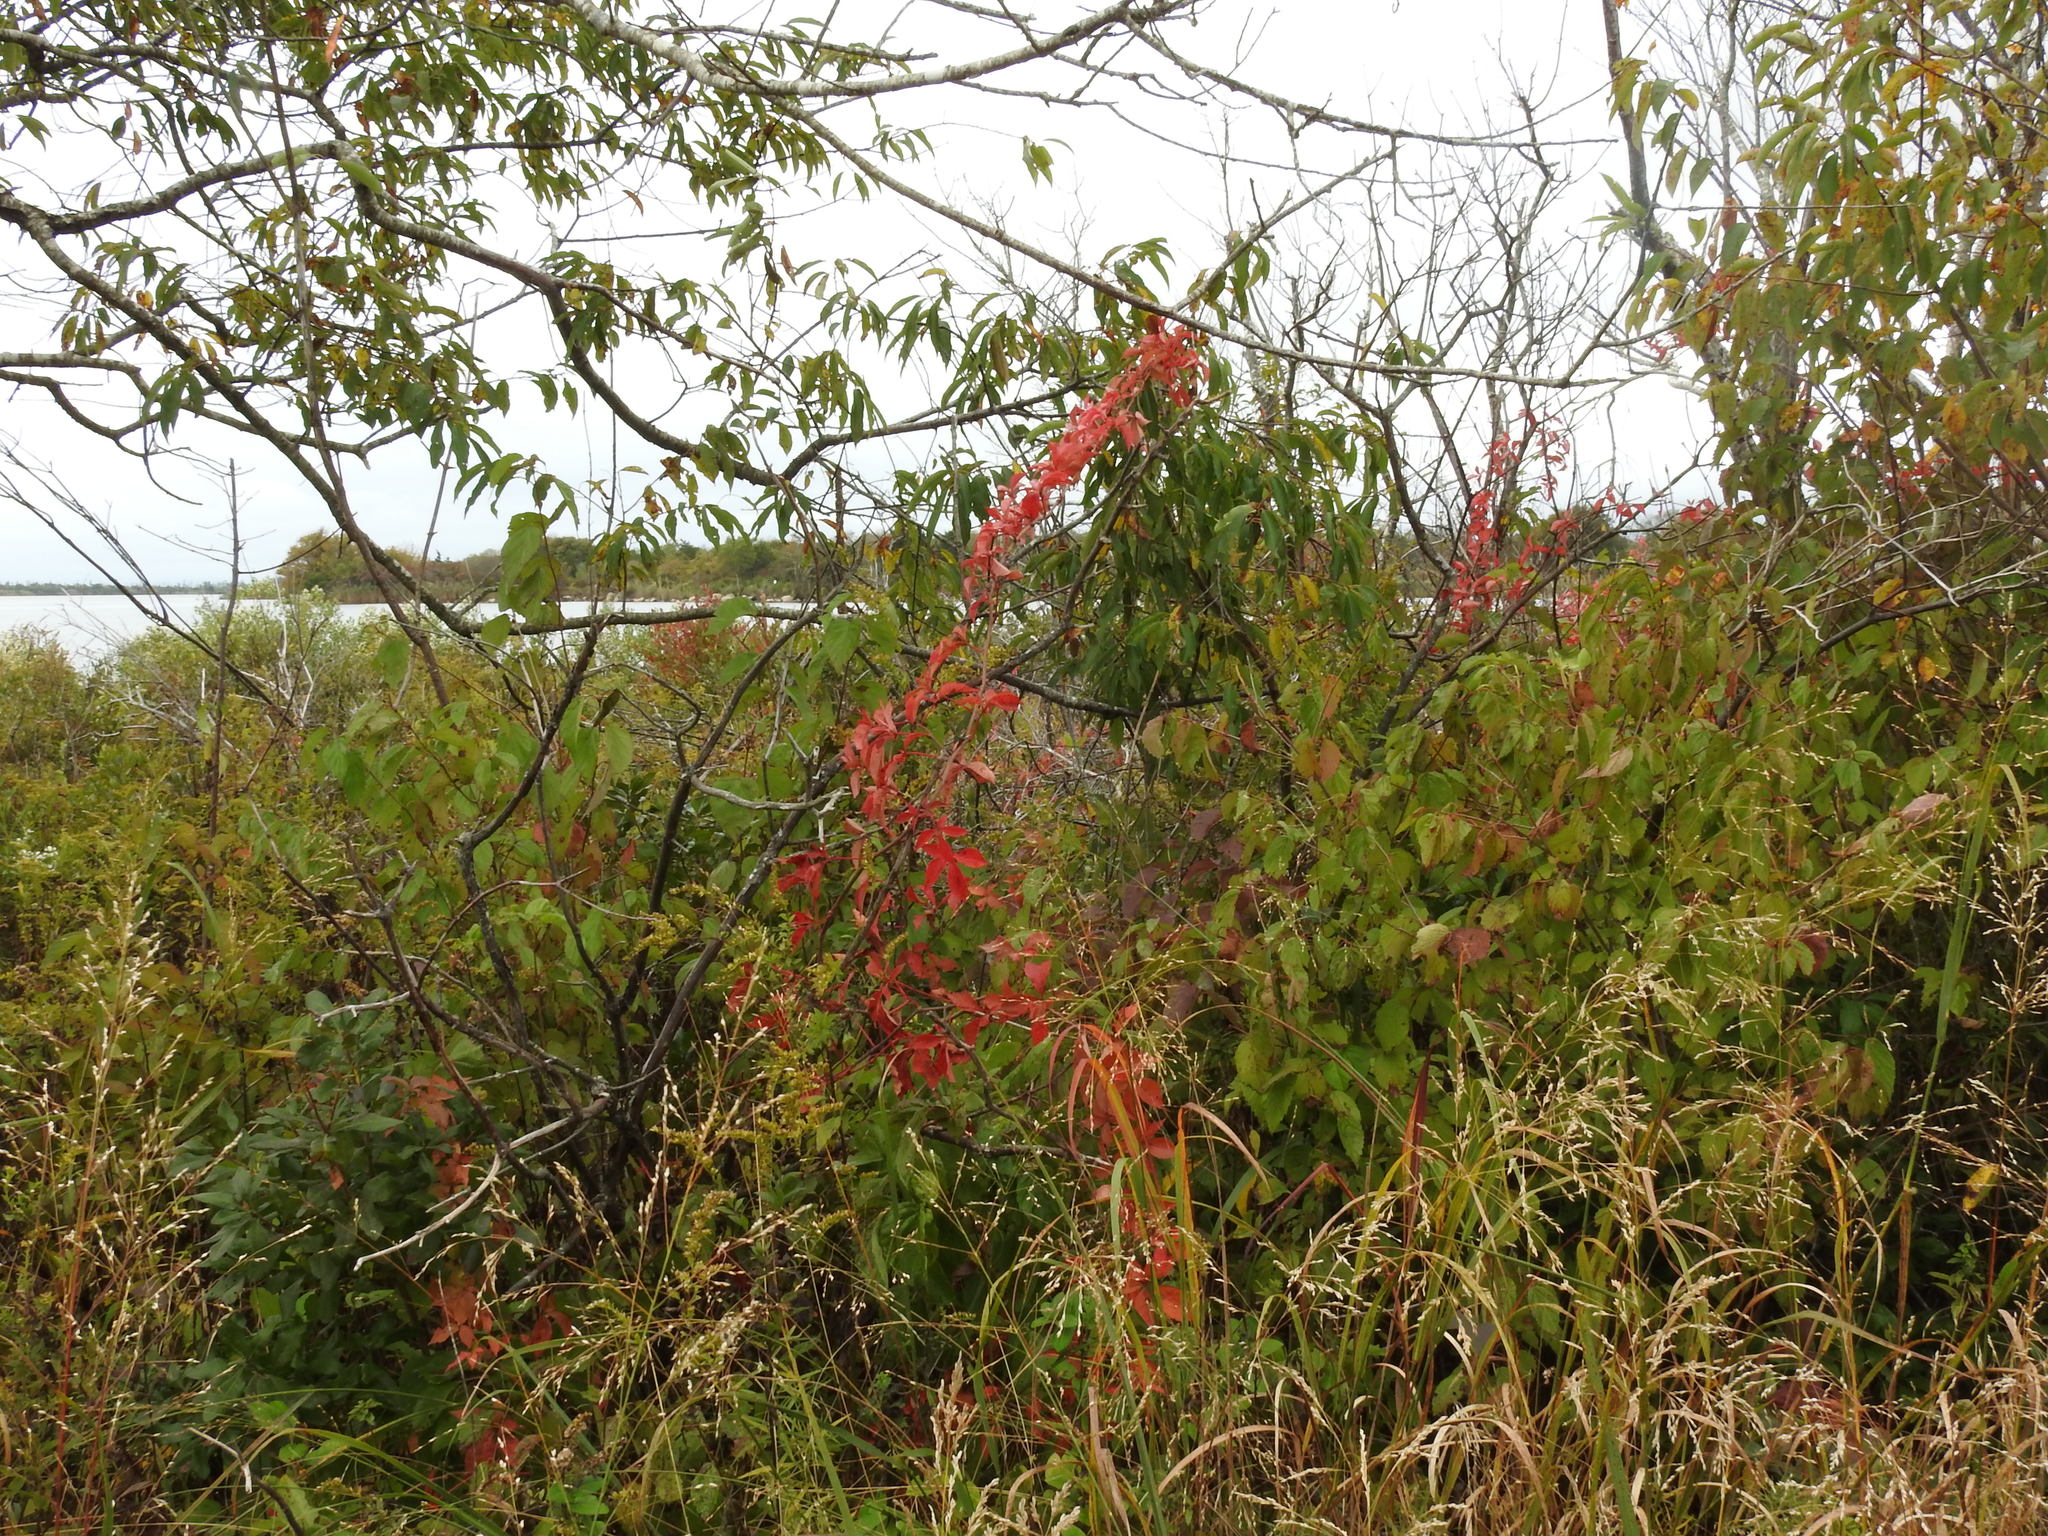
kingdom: Plantae
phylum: Tracheophyta
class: Magnoliopsida
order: Vitales
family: Vitaceae
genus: Parthenocissus
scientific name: Parthenocissus quinquefolia
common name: Virginia-creeper
